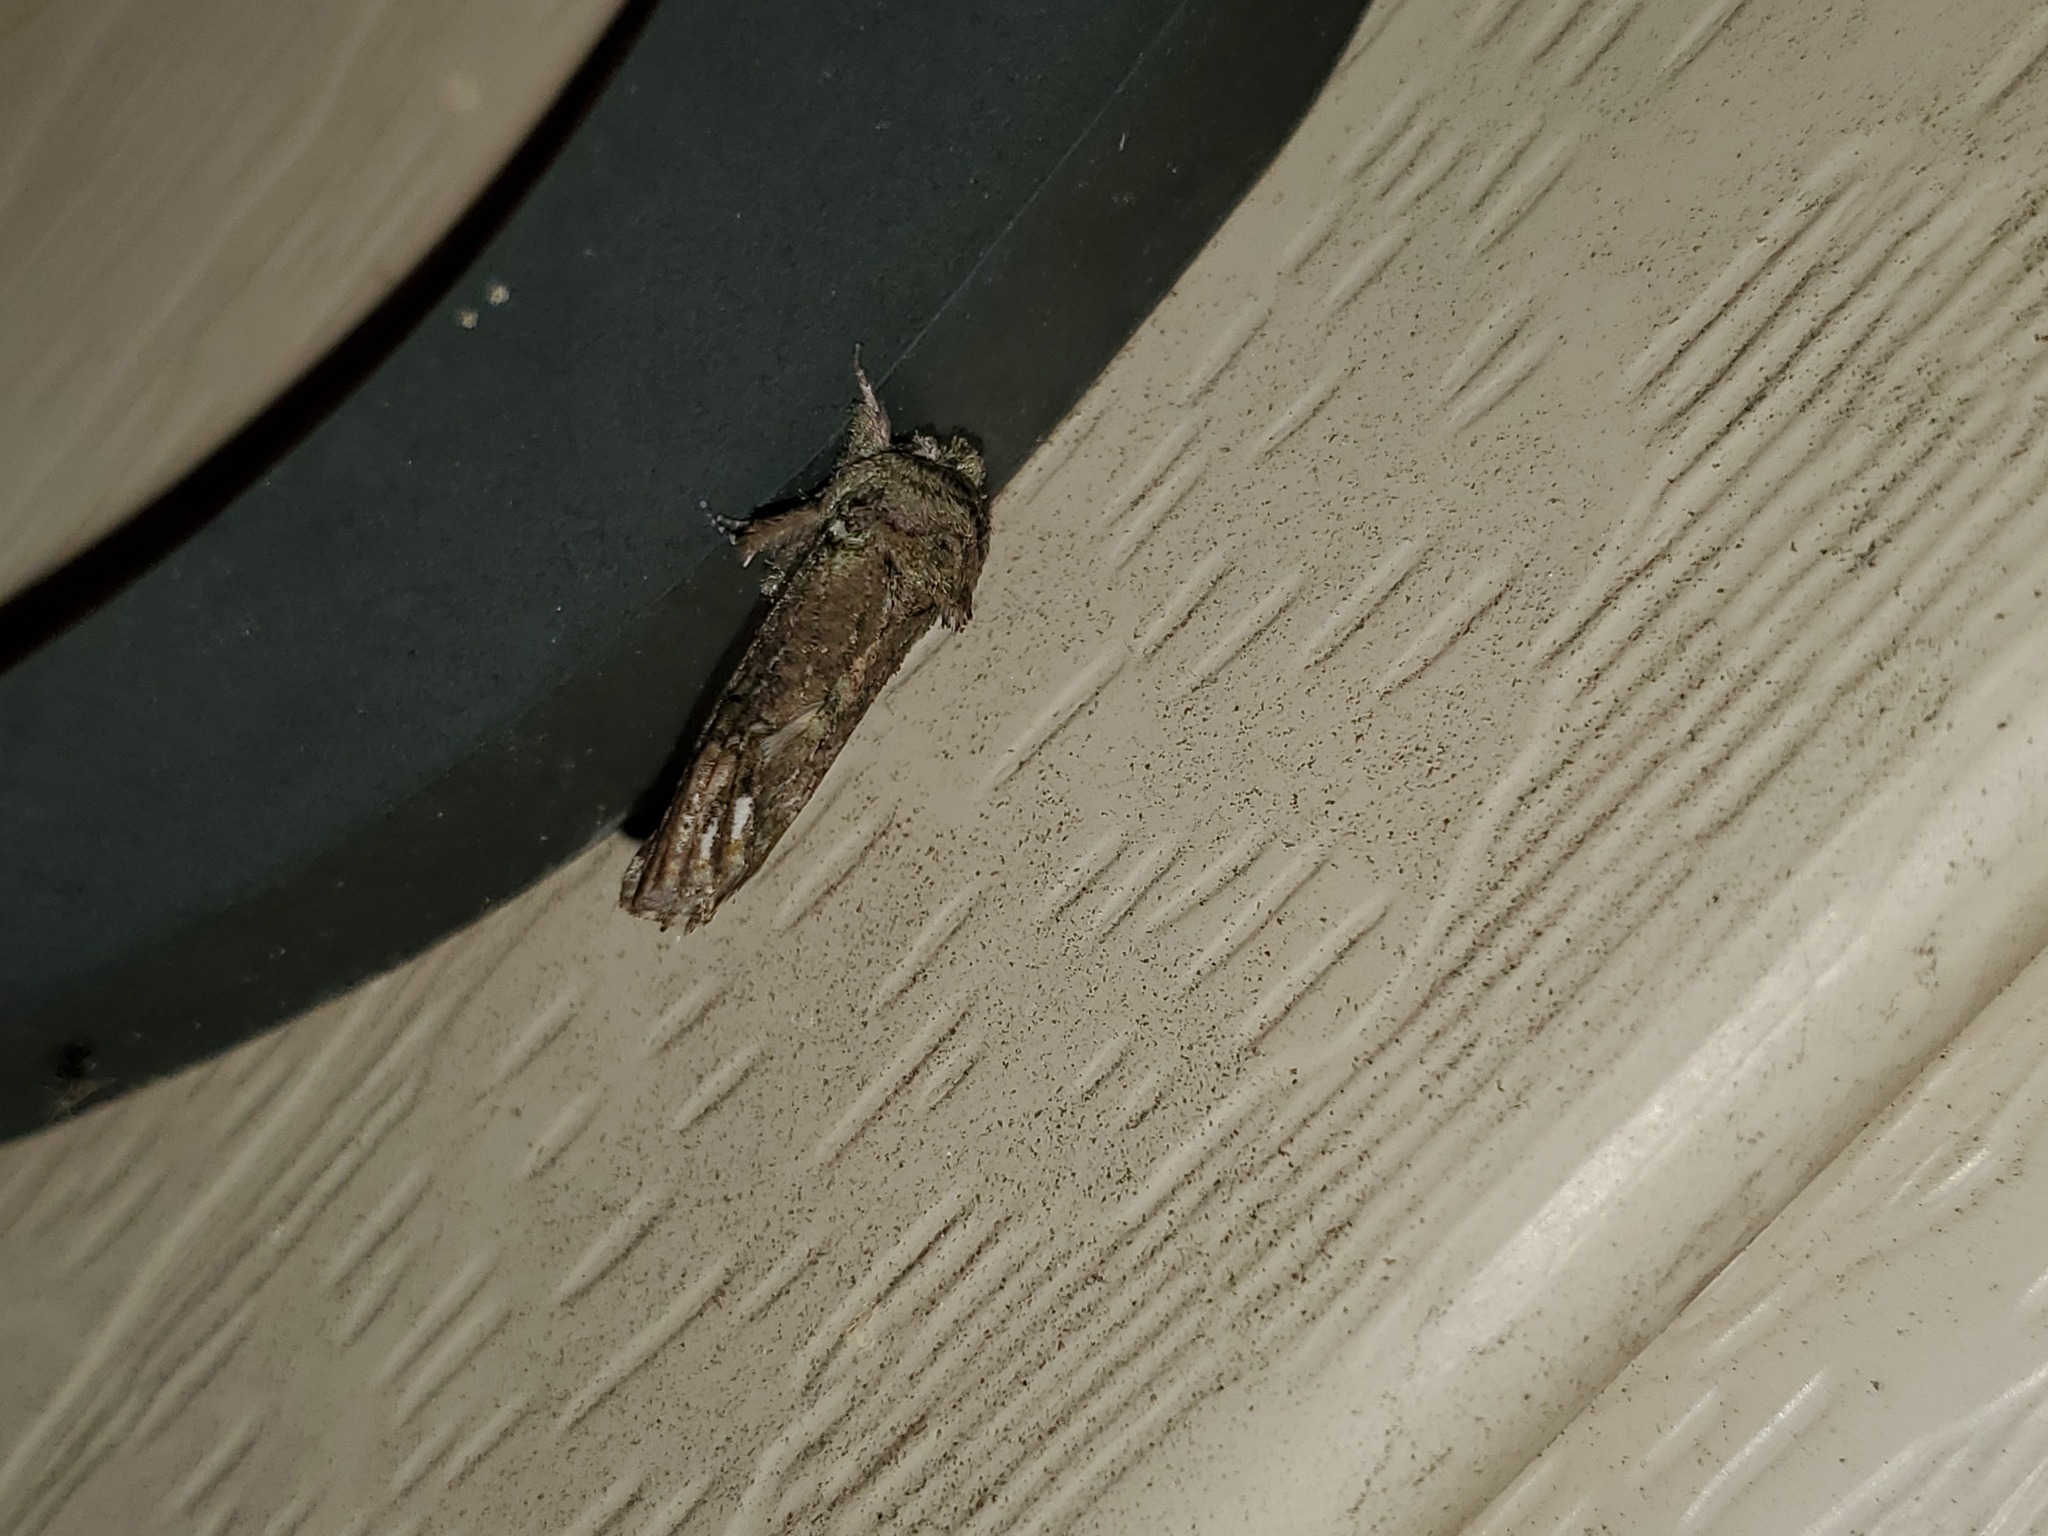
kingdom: Animalia
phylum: Arthropoda
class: Insecta
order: Lepidoptera
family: Notodontidae
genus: Schizura
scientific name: Schizura
